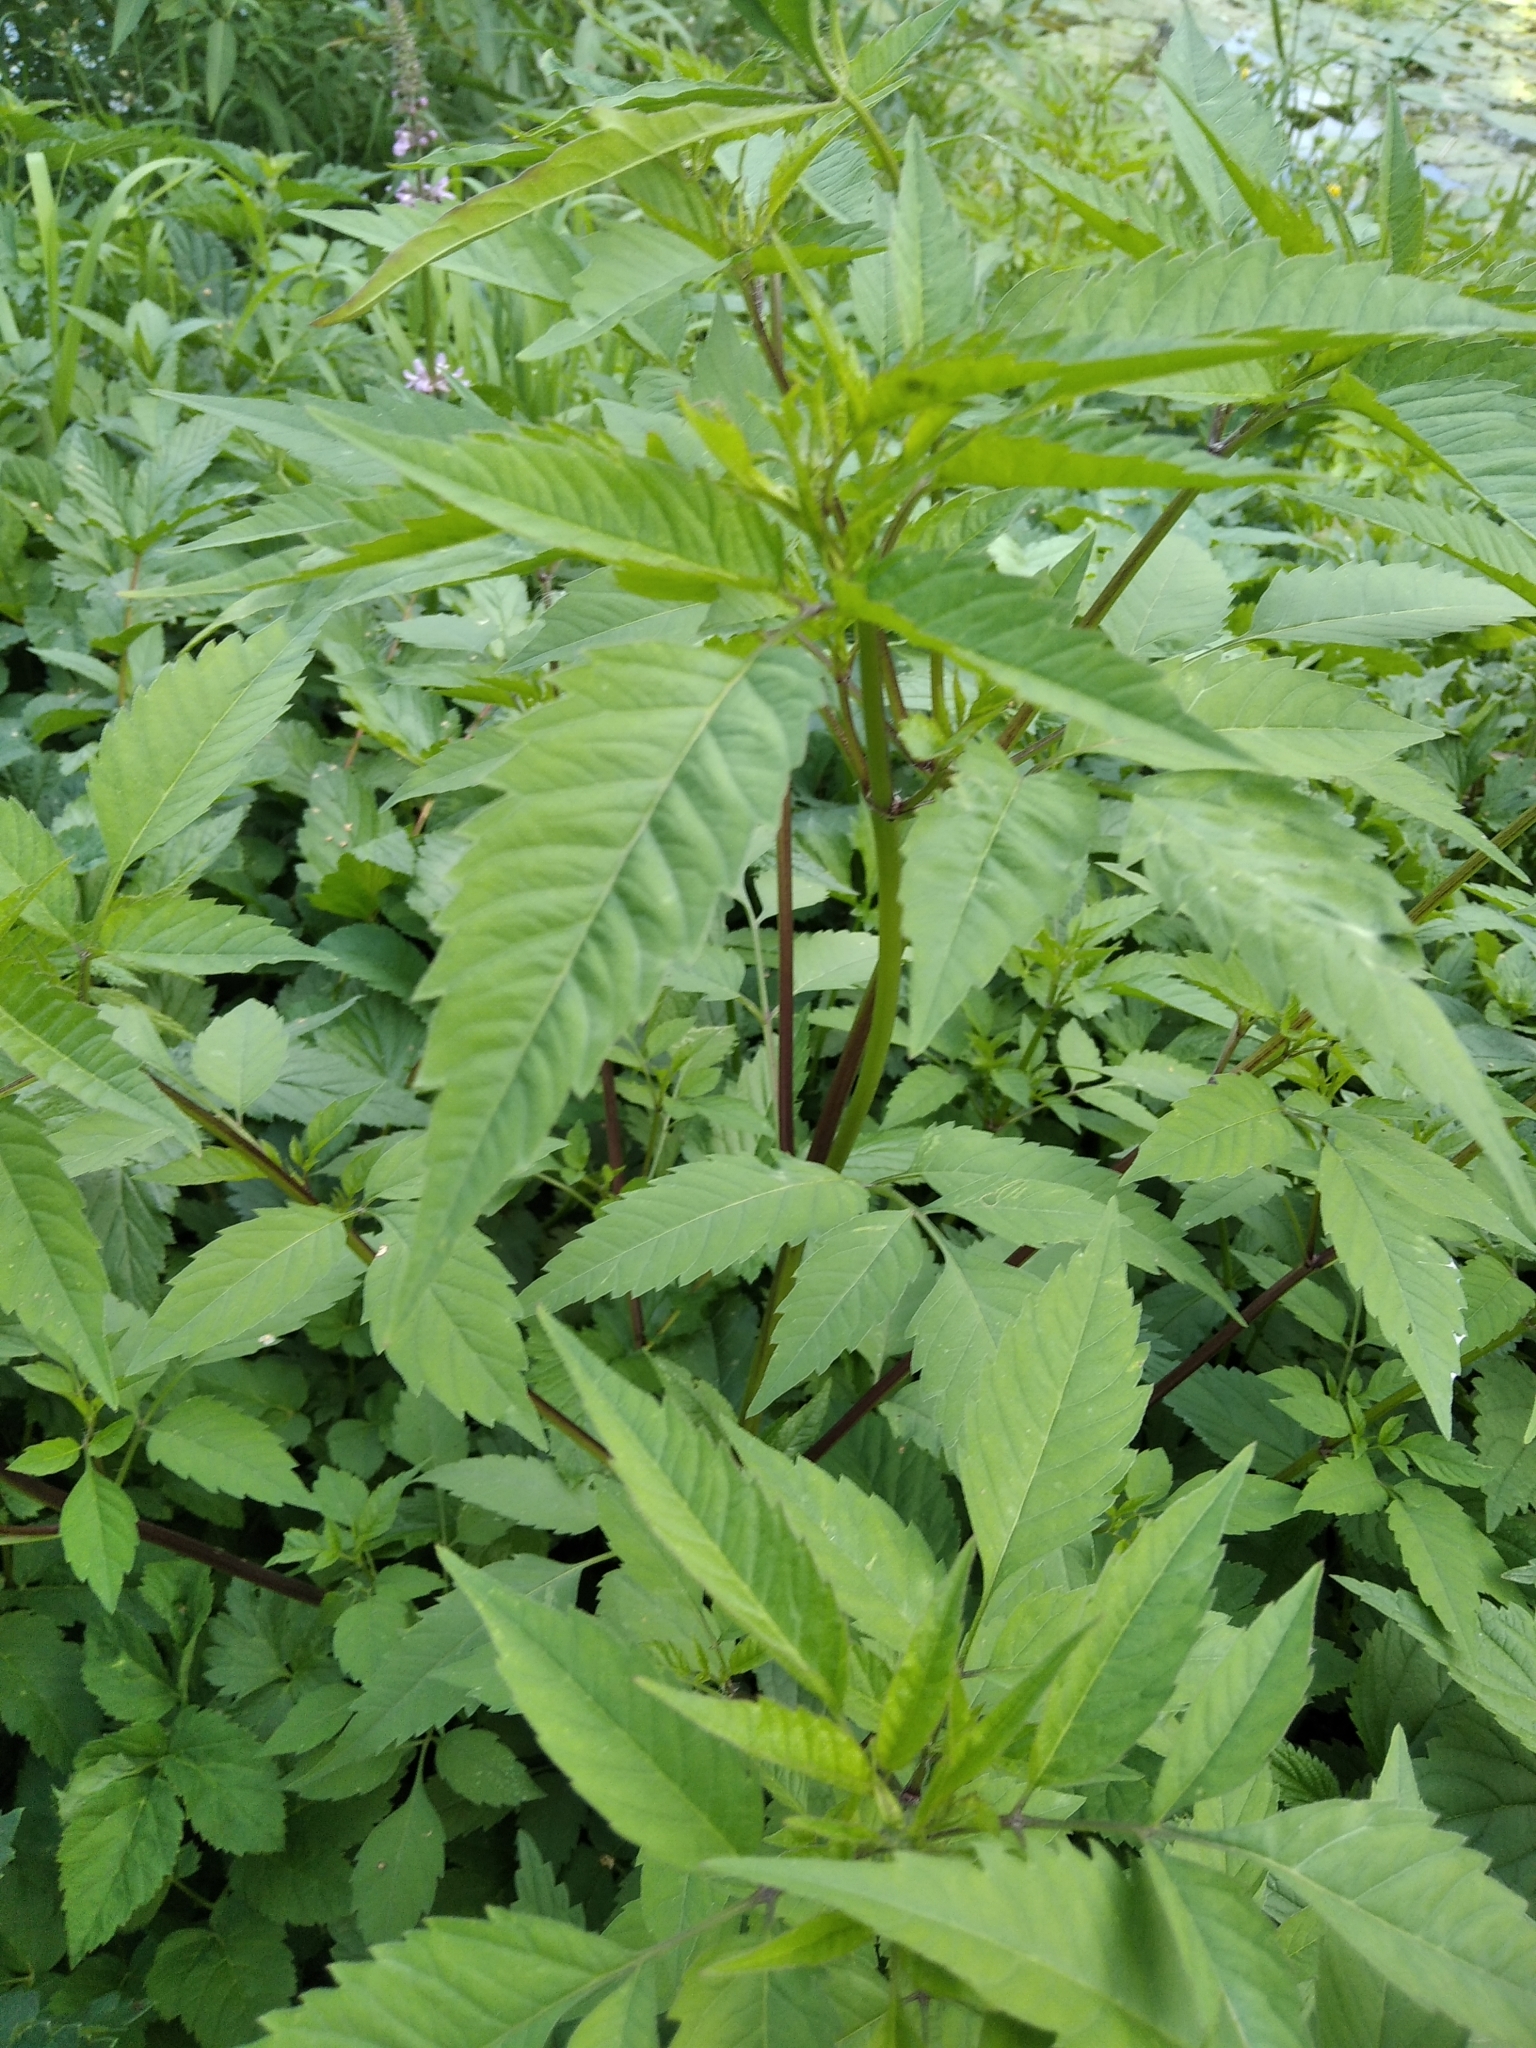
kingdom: Plantae
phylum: Tracheophyta
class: Magnoliopsida
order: Asterales
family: Asteraceae
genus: Bidens
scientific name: Bidens frondosa
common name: Beggarticks
